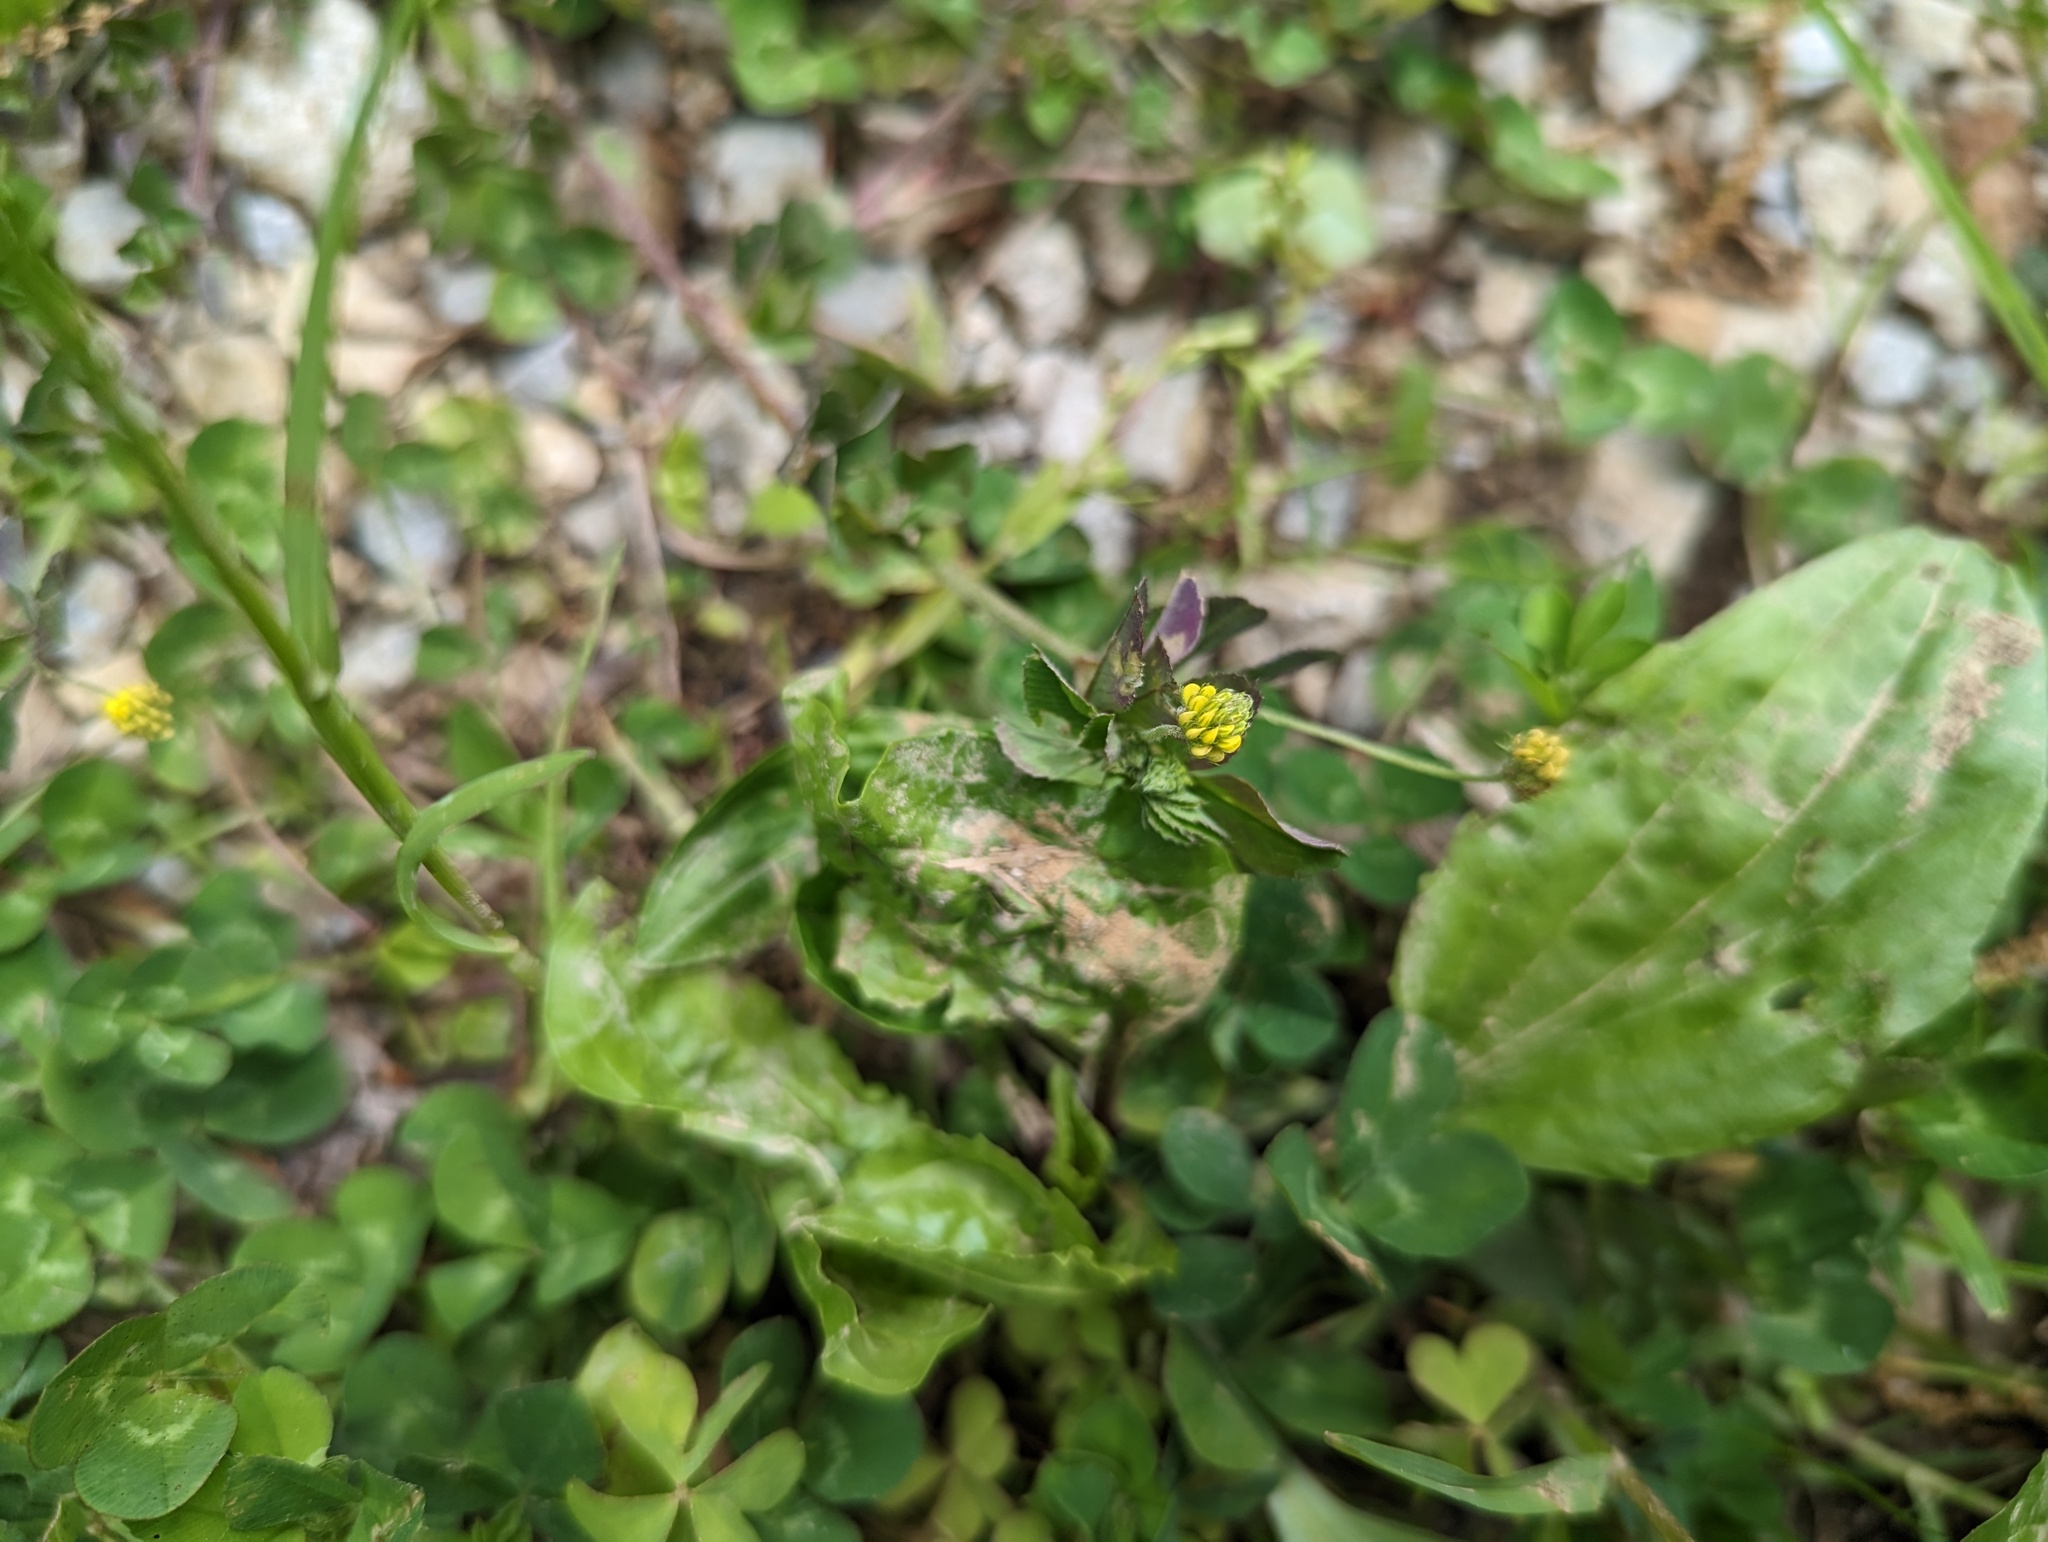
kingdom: Plantae
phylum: Tracheophyta
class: Magnoliopsida
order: Fabales
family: Fabaceae
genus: Medicago
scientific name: Medicago lupulina
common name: Black medick
